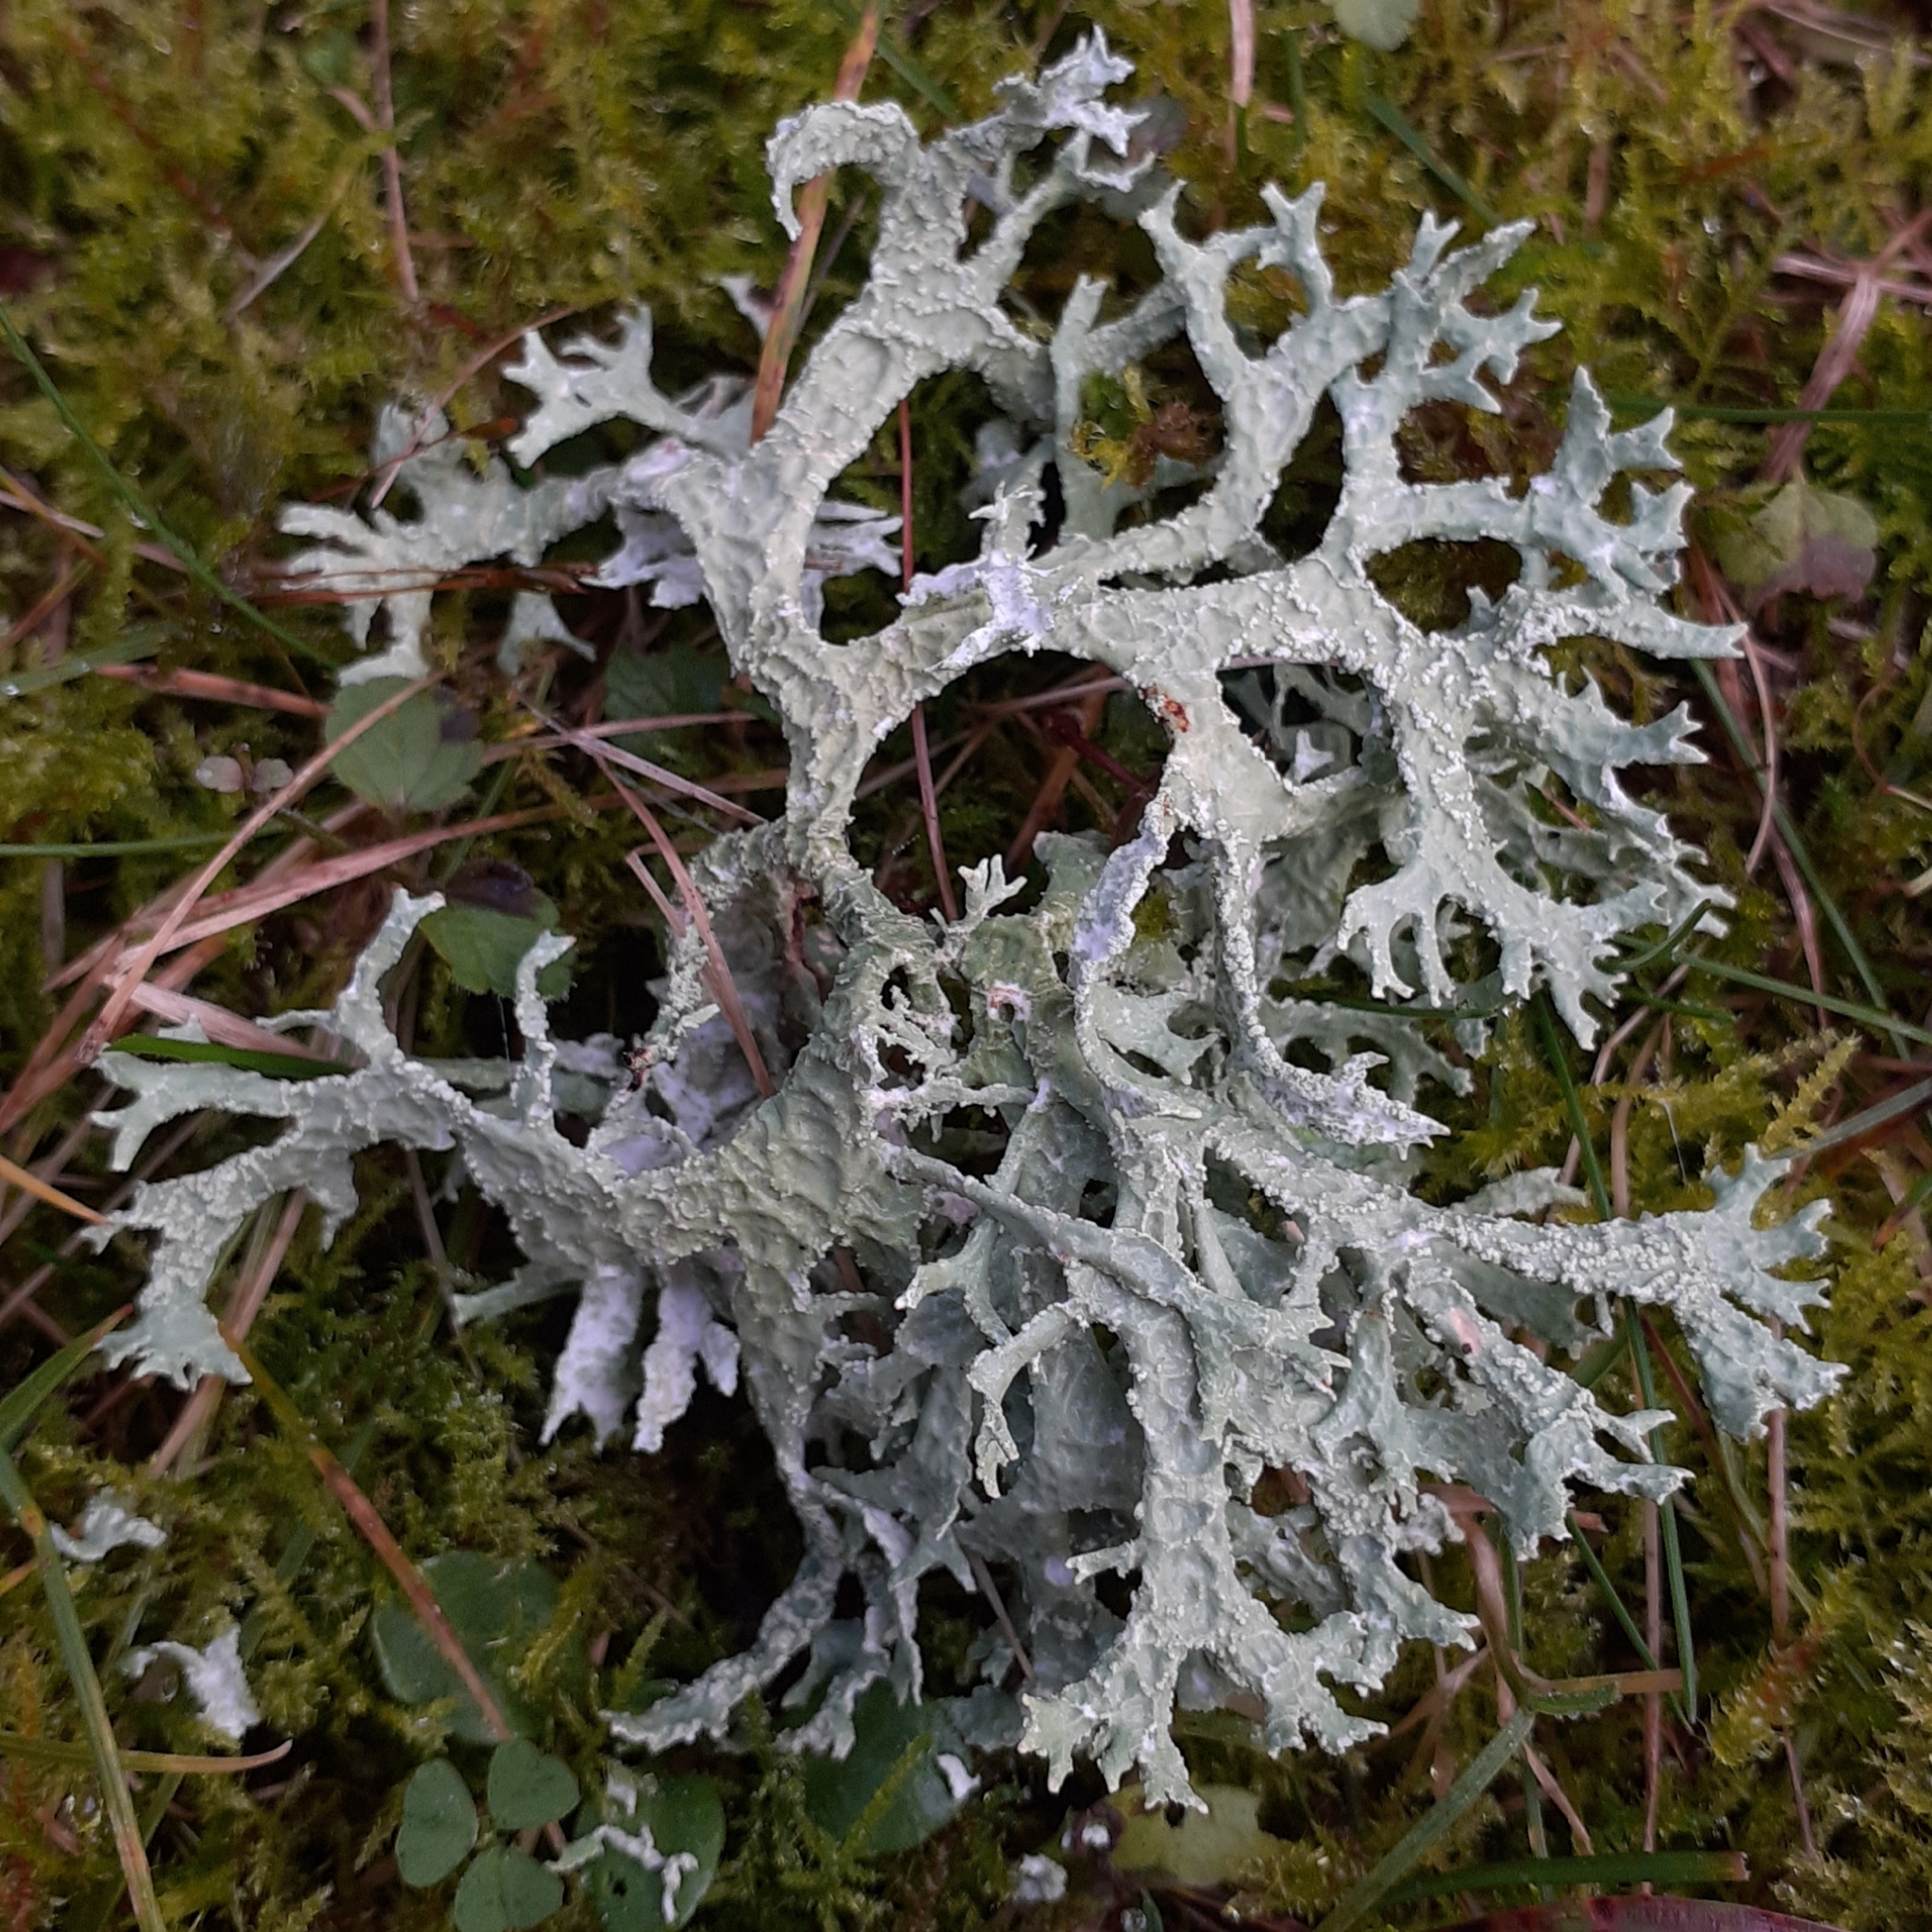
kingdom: Fungi
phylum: Ascomycota
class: Lecanoromycetes
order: Lecanorales
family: Parmeliaceae
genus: Evernia
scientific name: Evernia prunastri
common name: Oak moss
